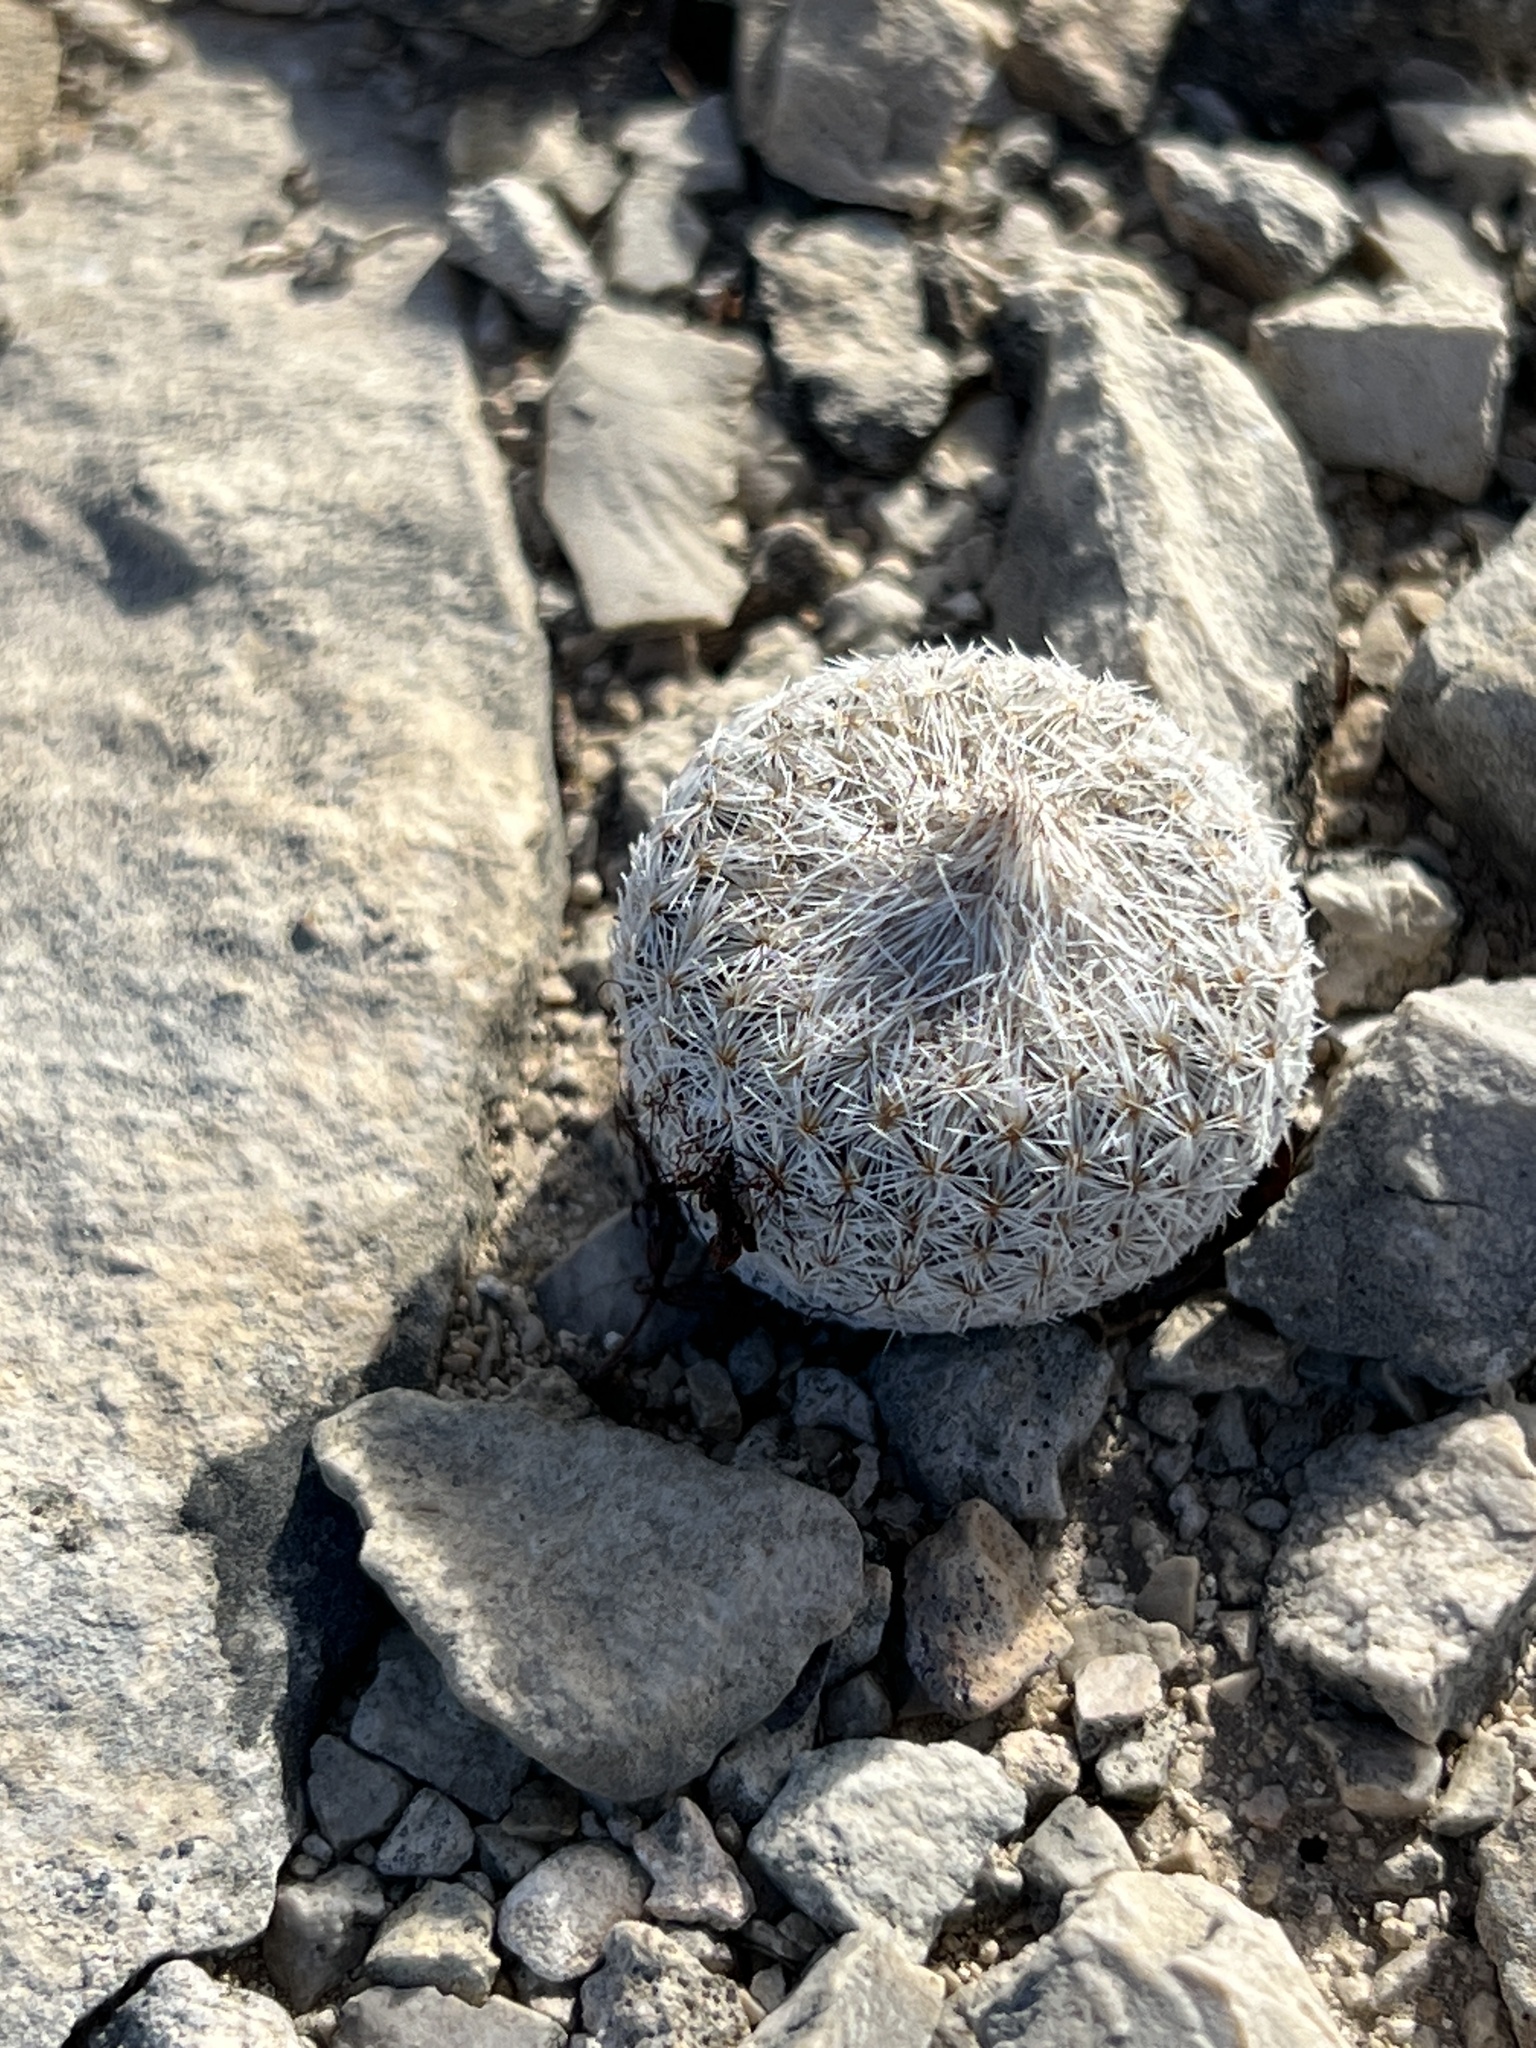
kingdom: Plantae
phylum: Tracheophyta
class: Magnoliopsida
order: Caryophyllales
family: Cactaceae
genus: Epithelantha
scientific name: Epithelantha micromeris
